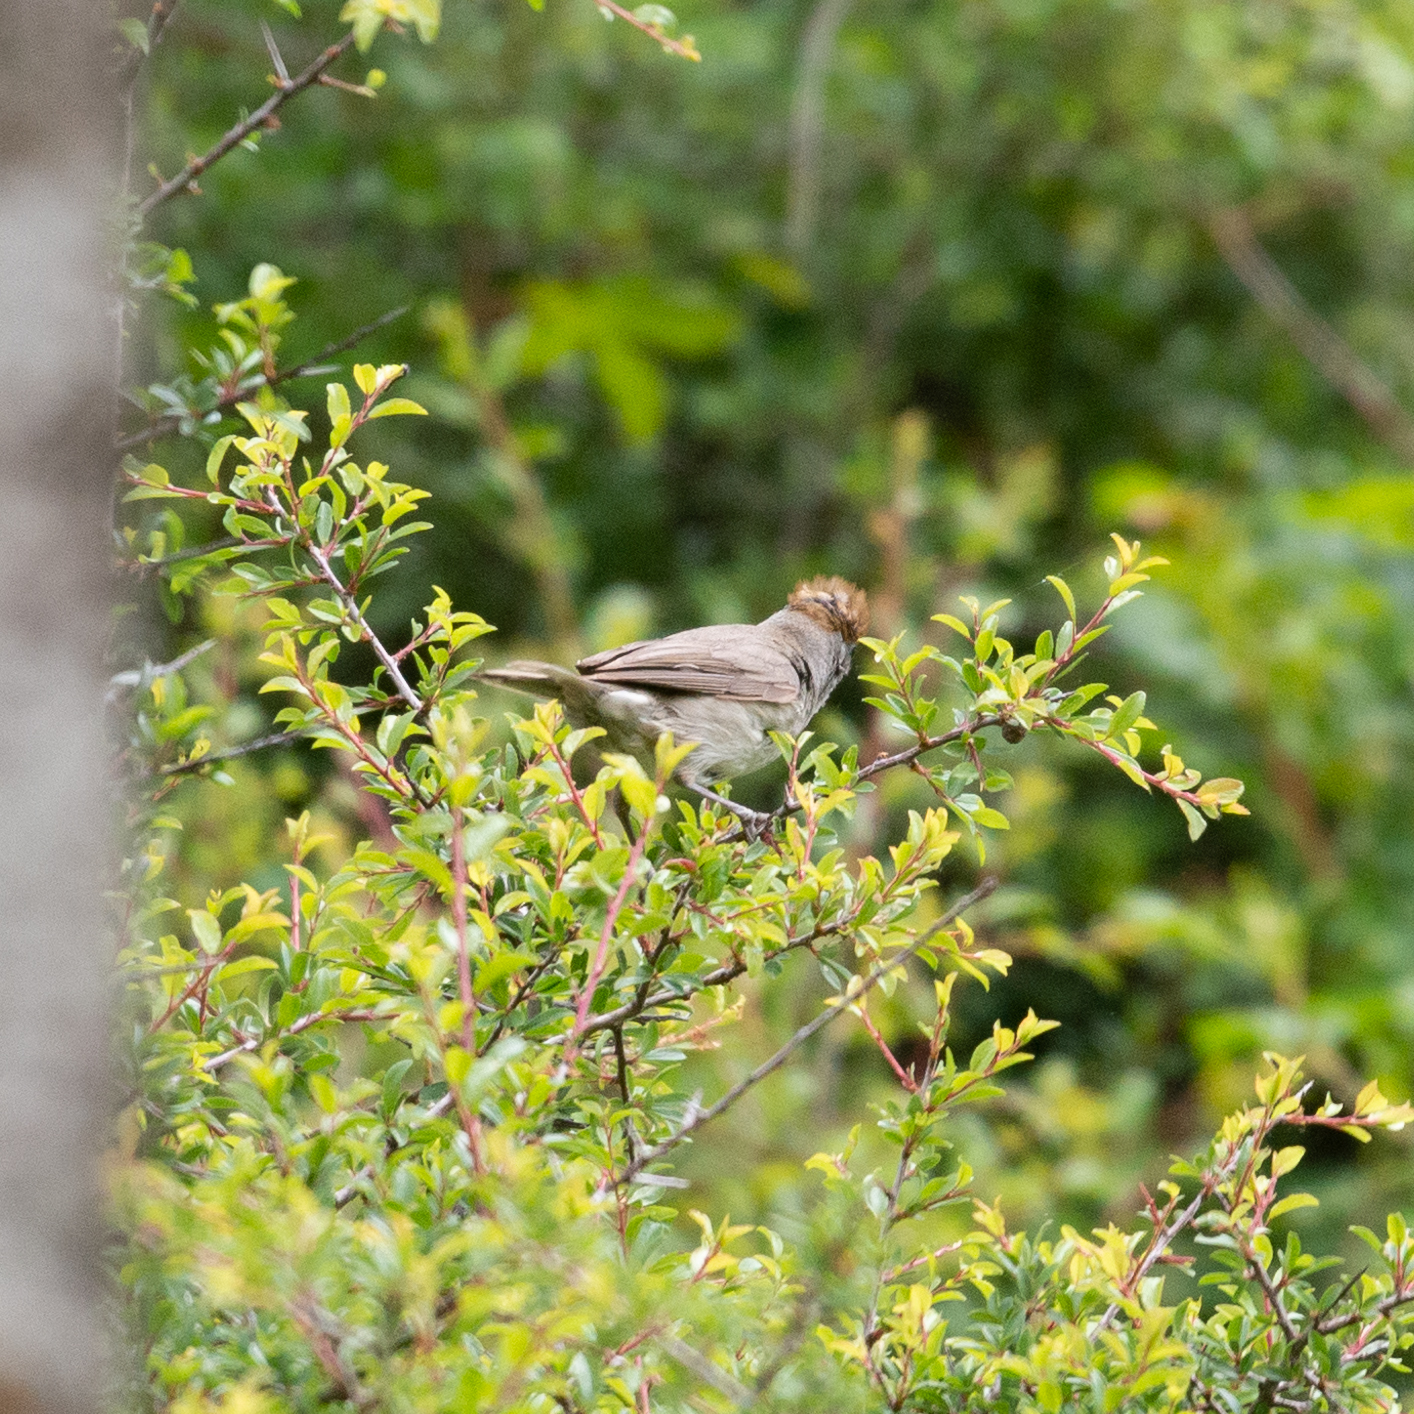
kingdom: Animalia
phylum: Chordata
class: Aves
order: Passeriformes
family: Sylviidae
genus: Sylvia
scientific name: Sylvia atricapilla
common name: Eurasian blackcap
